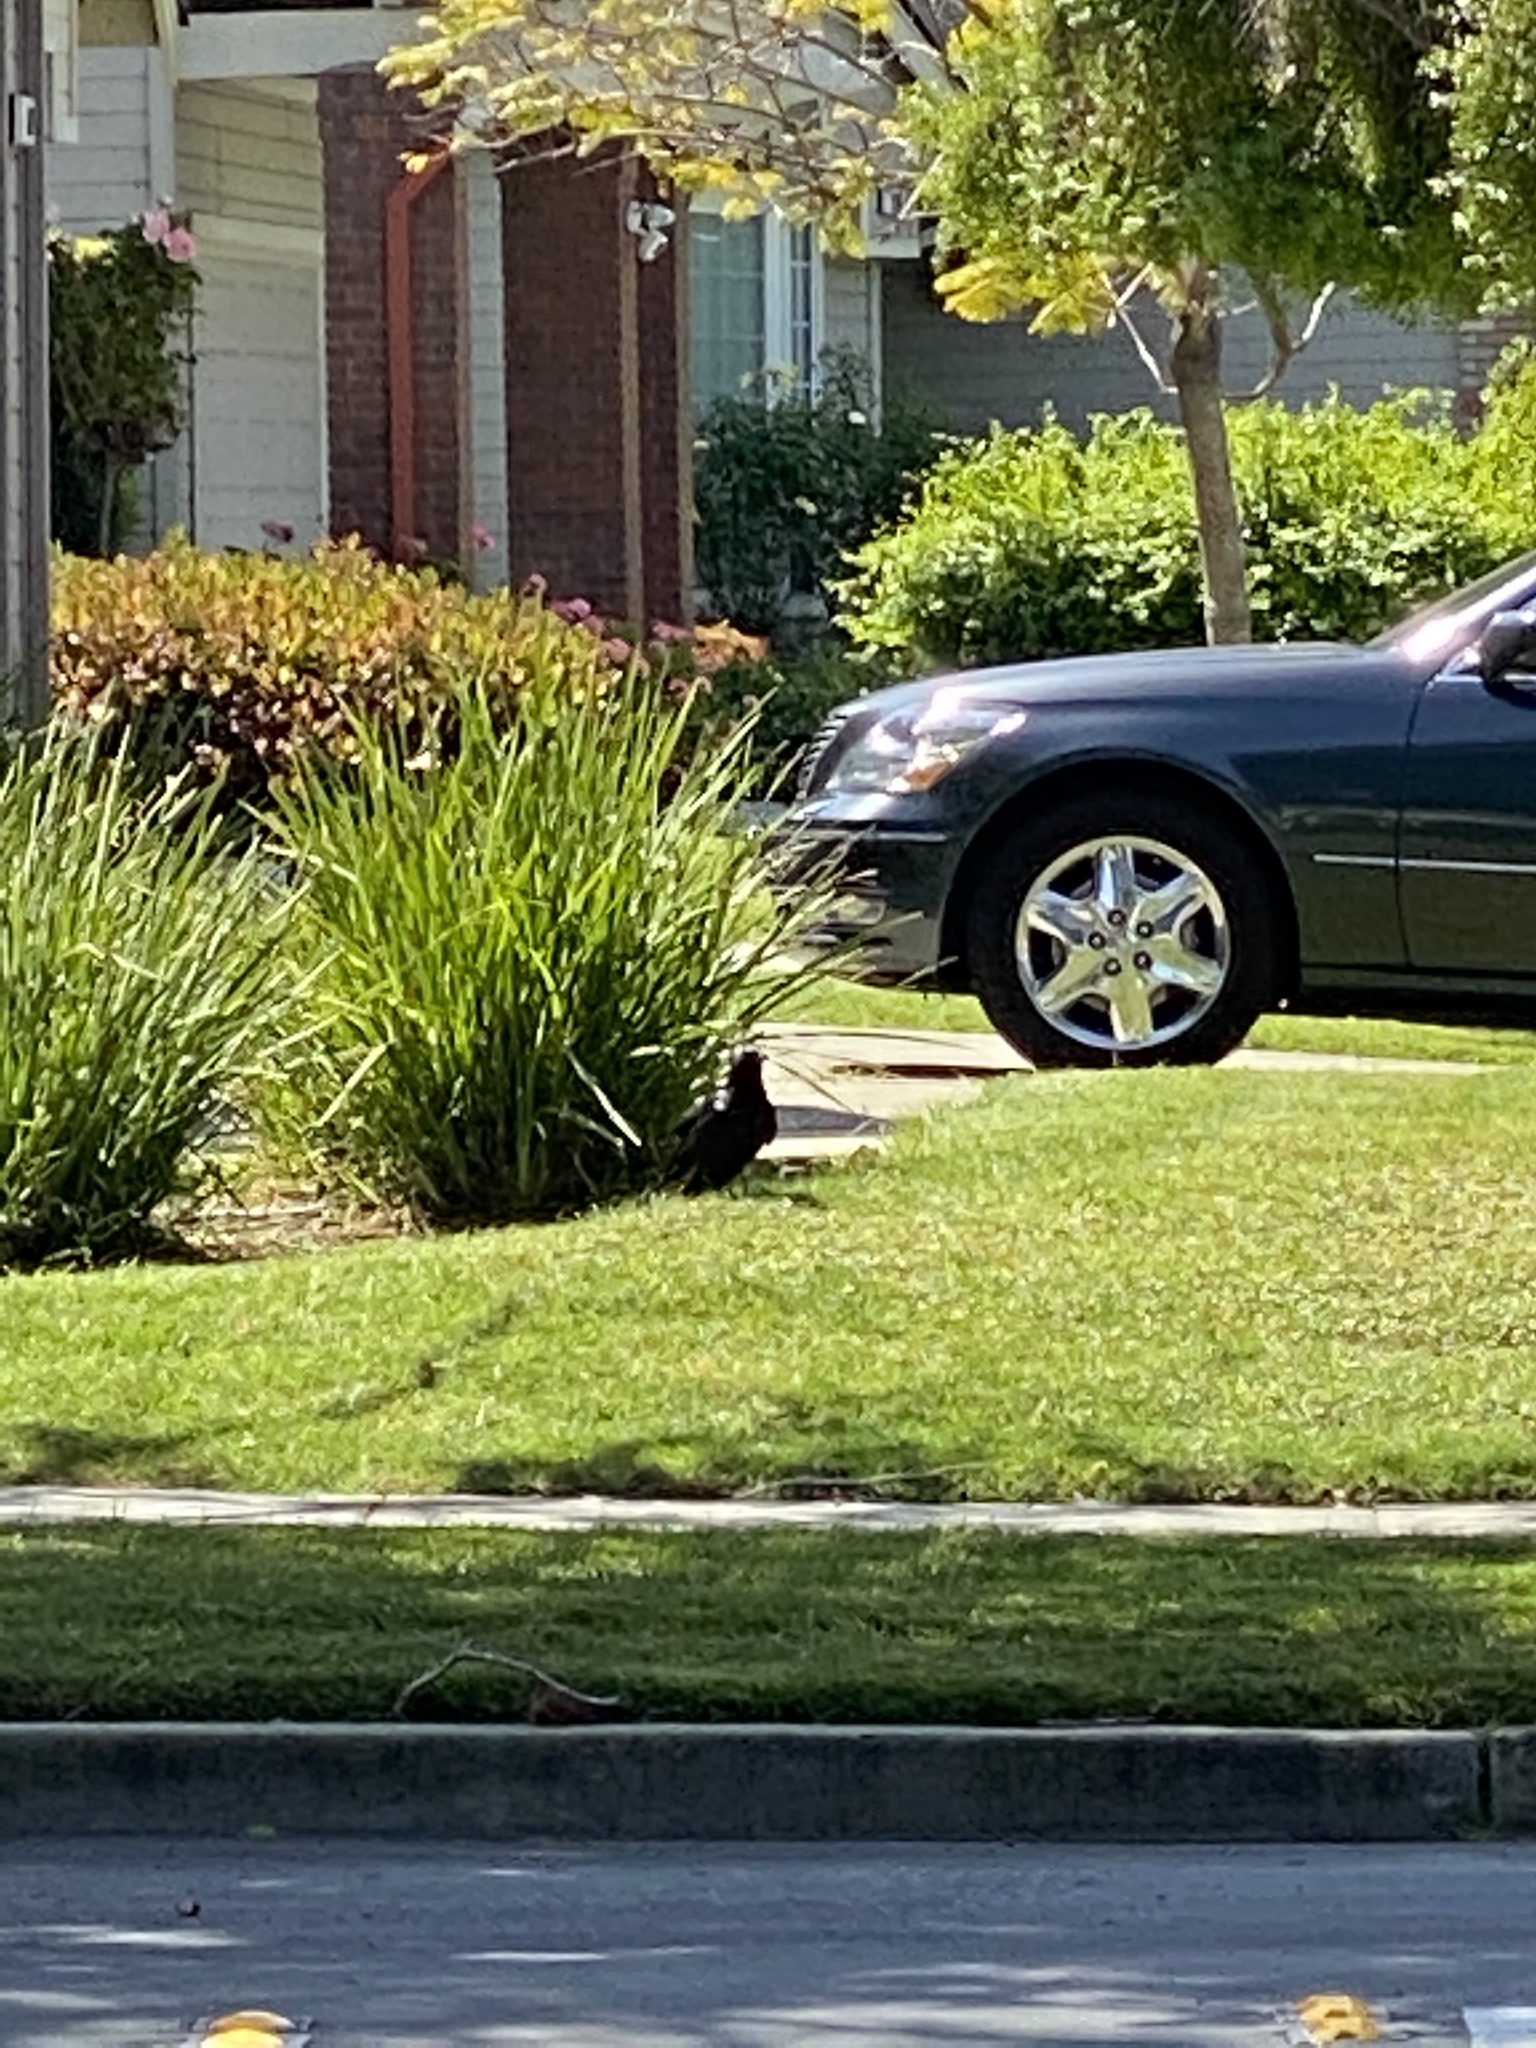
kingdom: Animalia
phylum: Chordata
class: Aves
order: Passeriformes
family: Corvidae
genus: Corvus
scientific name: Corvus brachyrhynchos
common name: American crow
